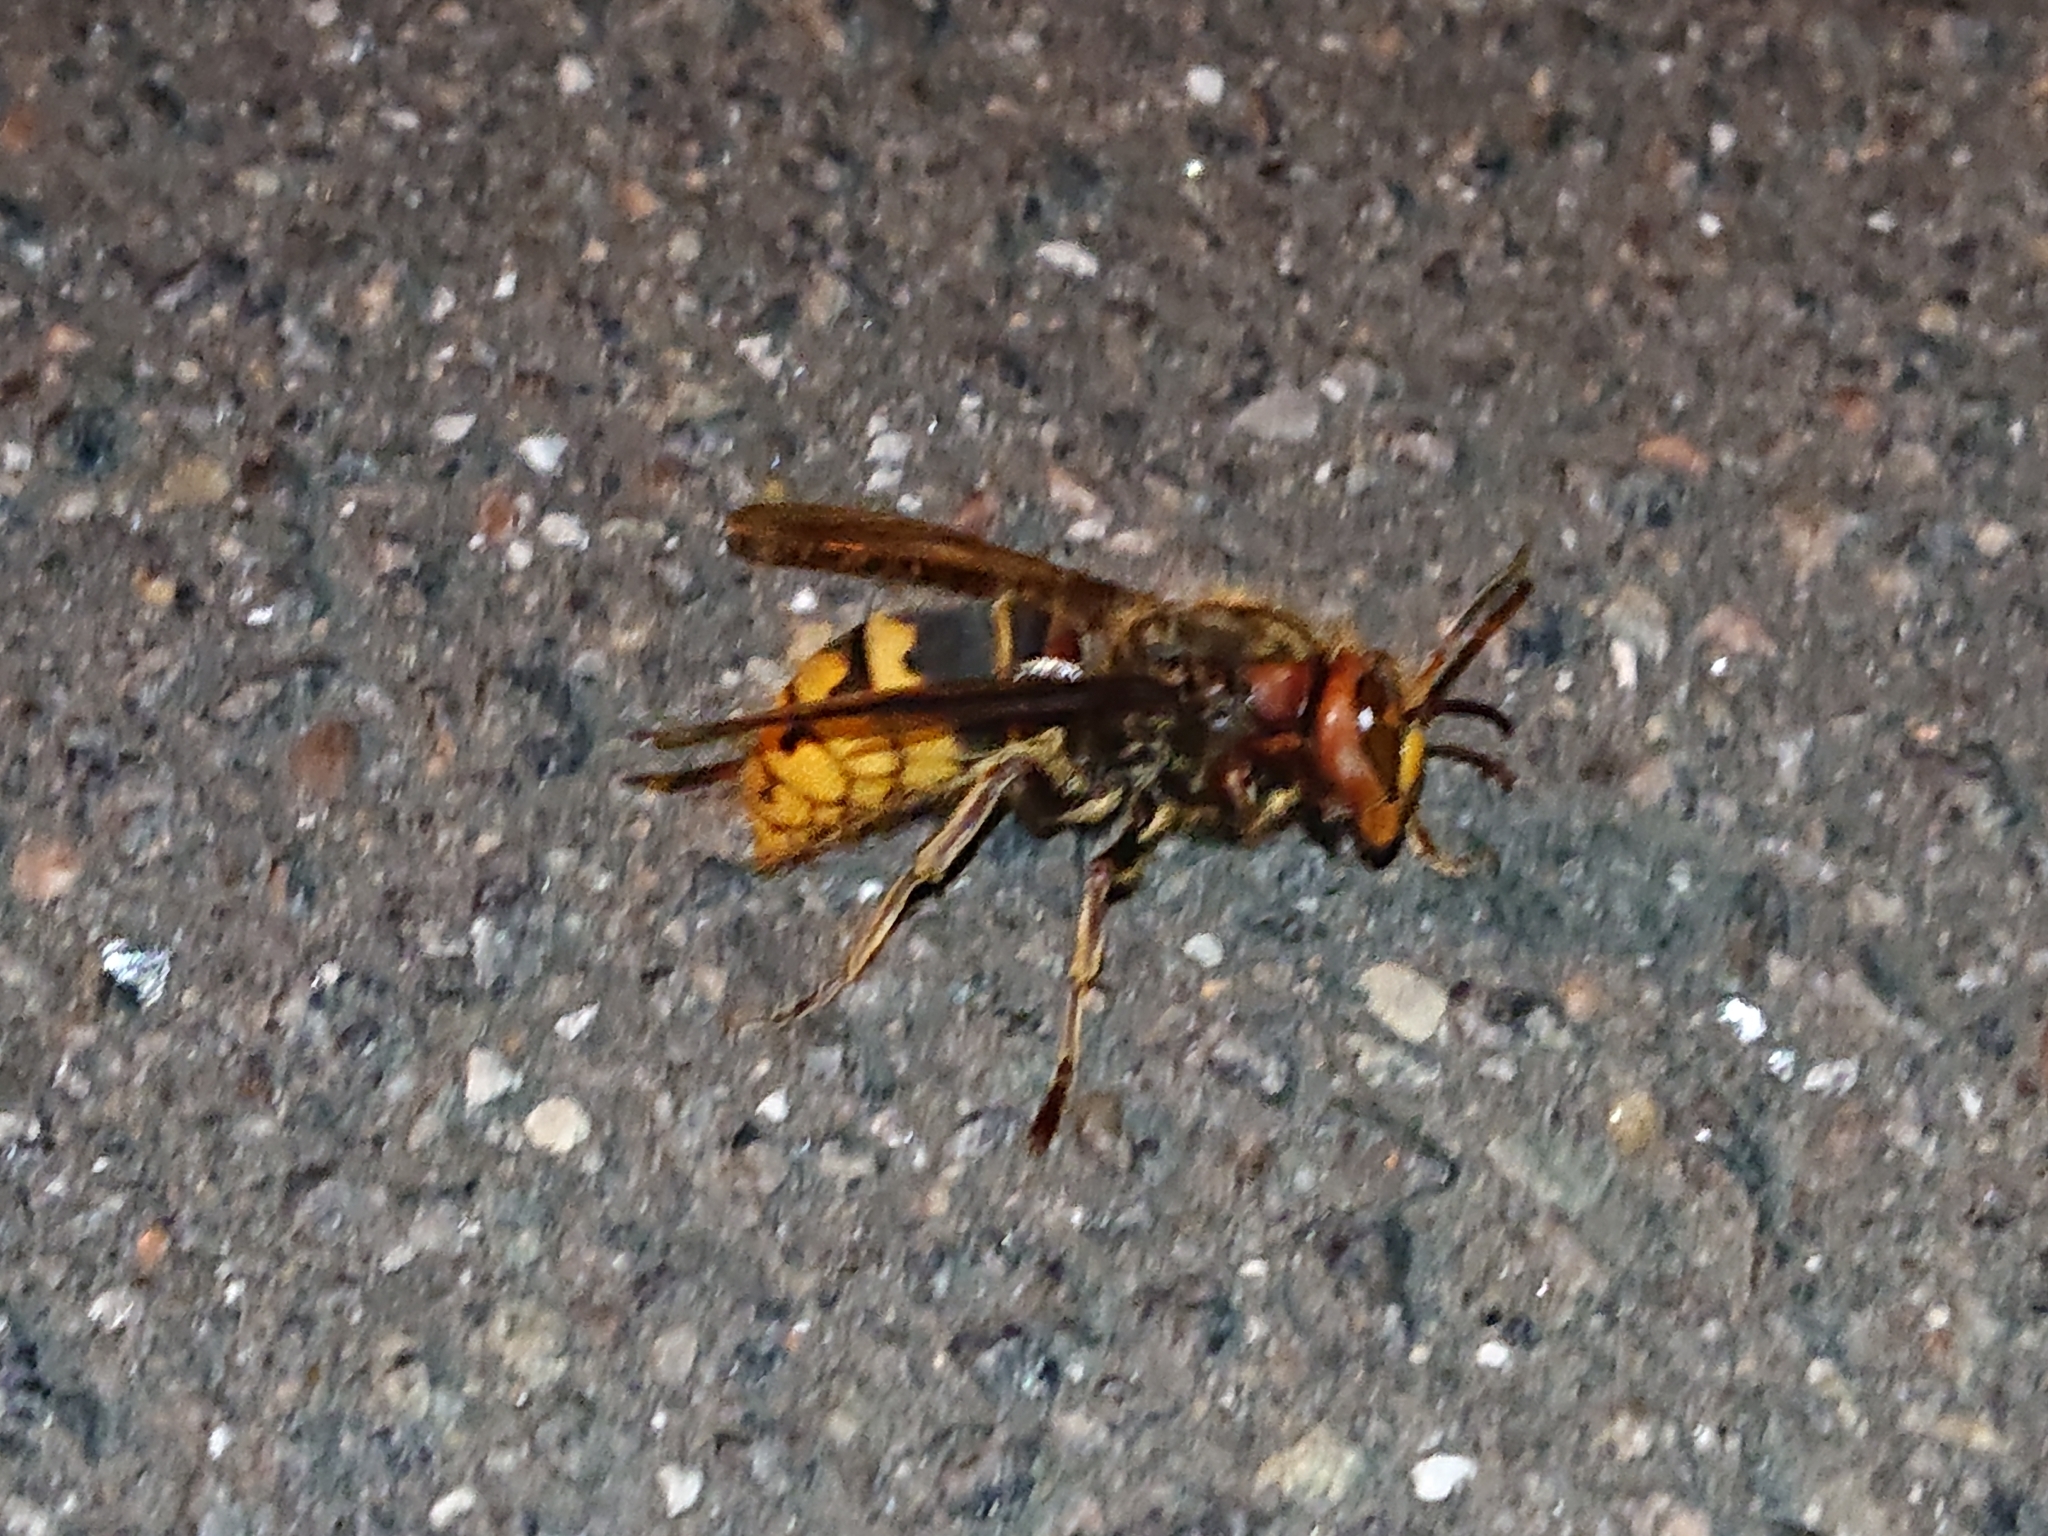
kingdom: Animalia
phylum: Arthropoda
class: Insecta
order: Hymenoptera
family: Vespidae
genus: Vespa
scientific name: Vespa crabro
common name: Hornet
